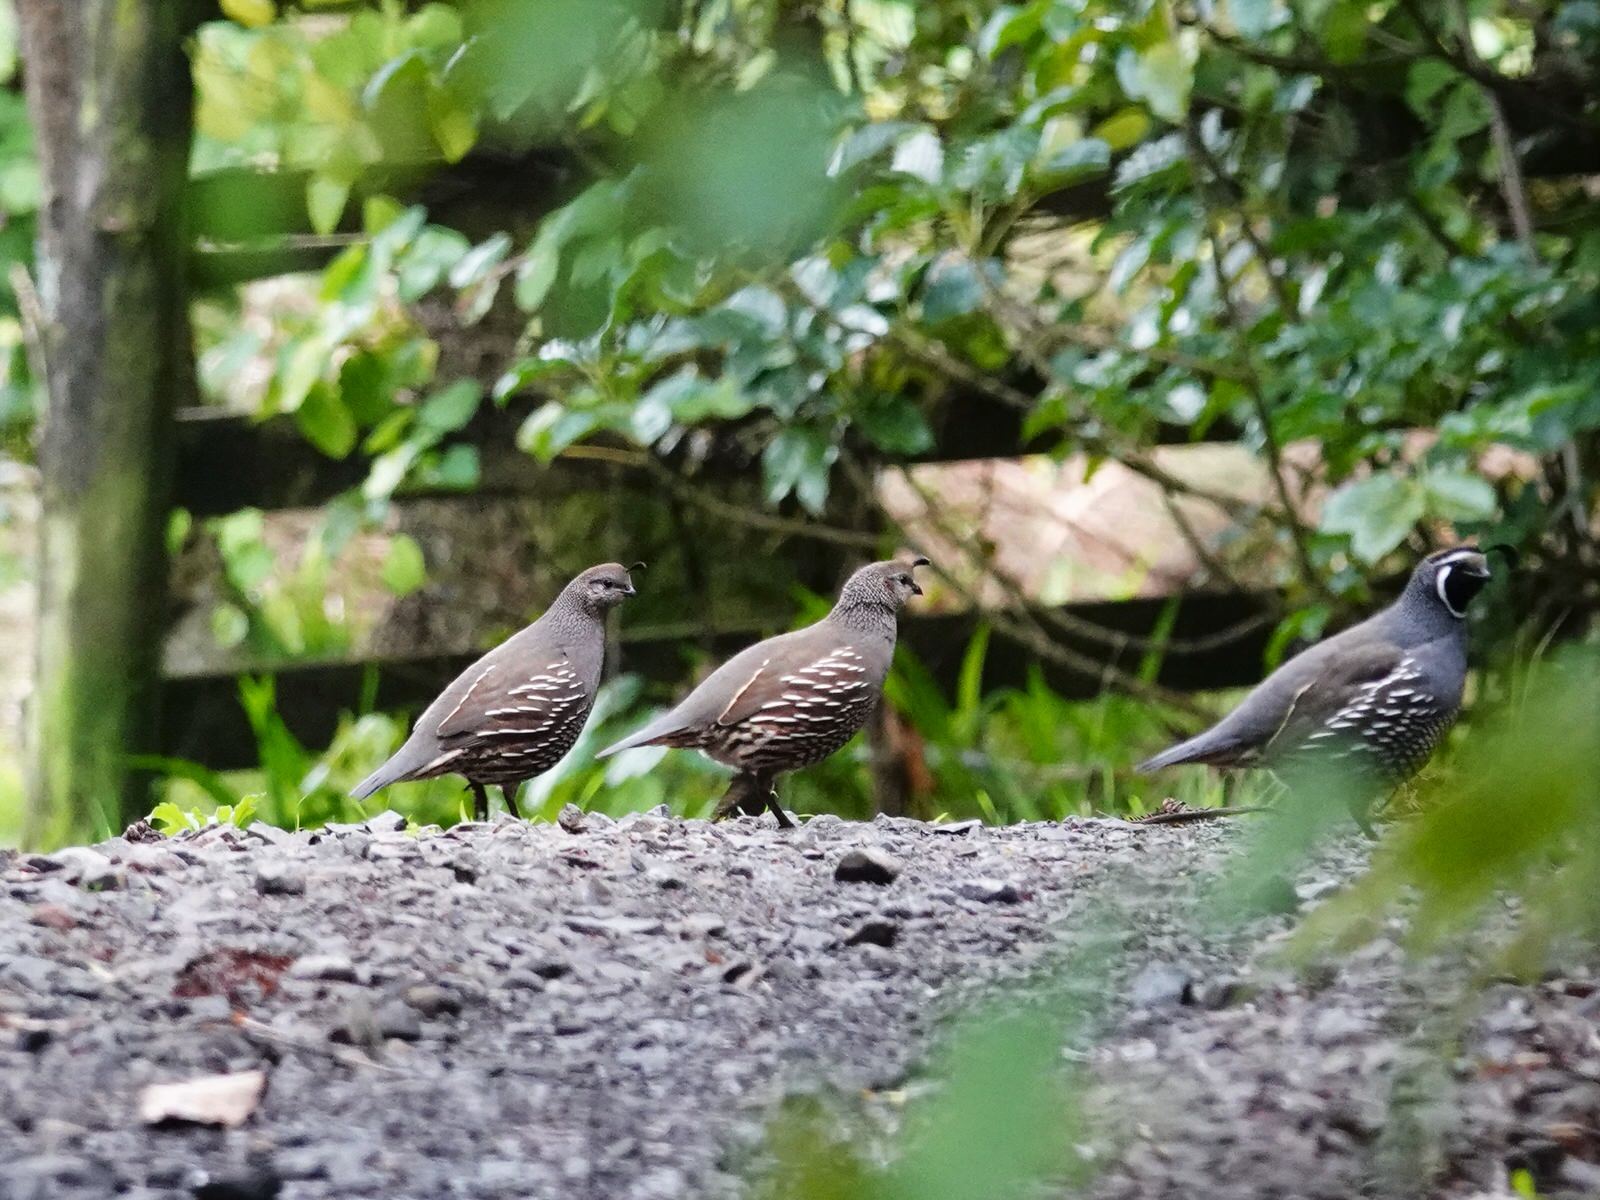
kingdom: Animalia
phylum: Chordata
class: Aves
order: Galliformes
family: Odontophoridae
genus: Callipepla
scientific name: Callipepla californica
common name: California quail
